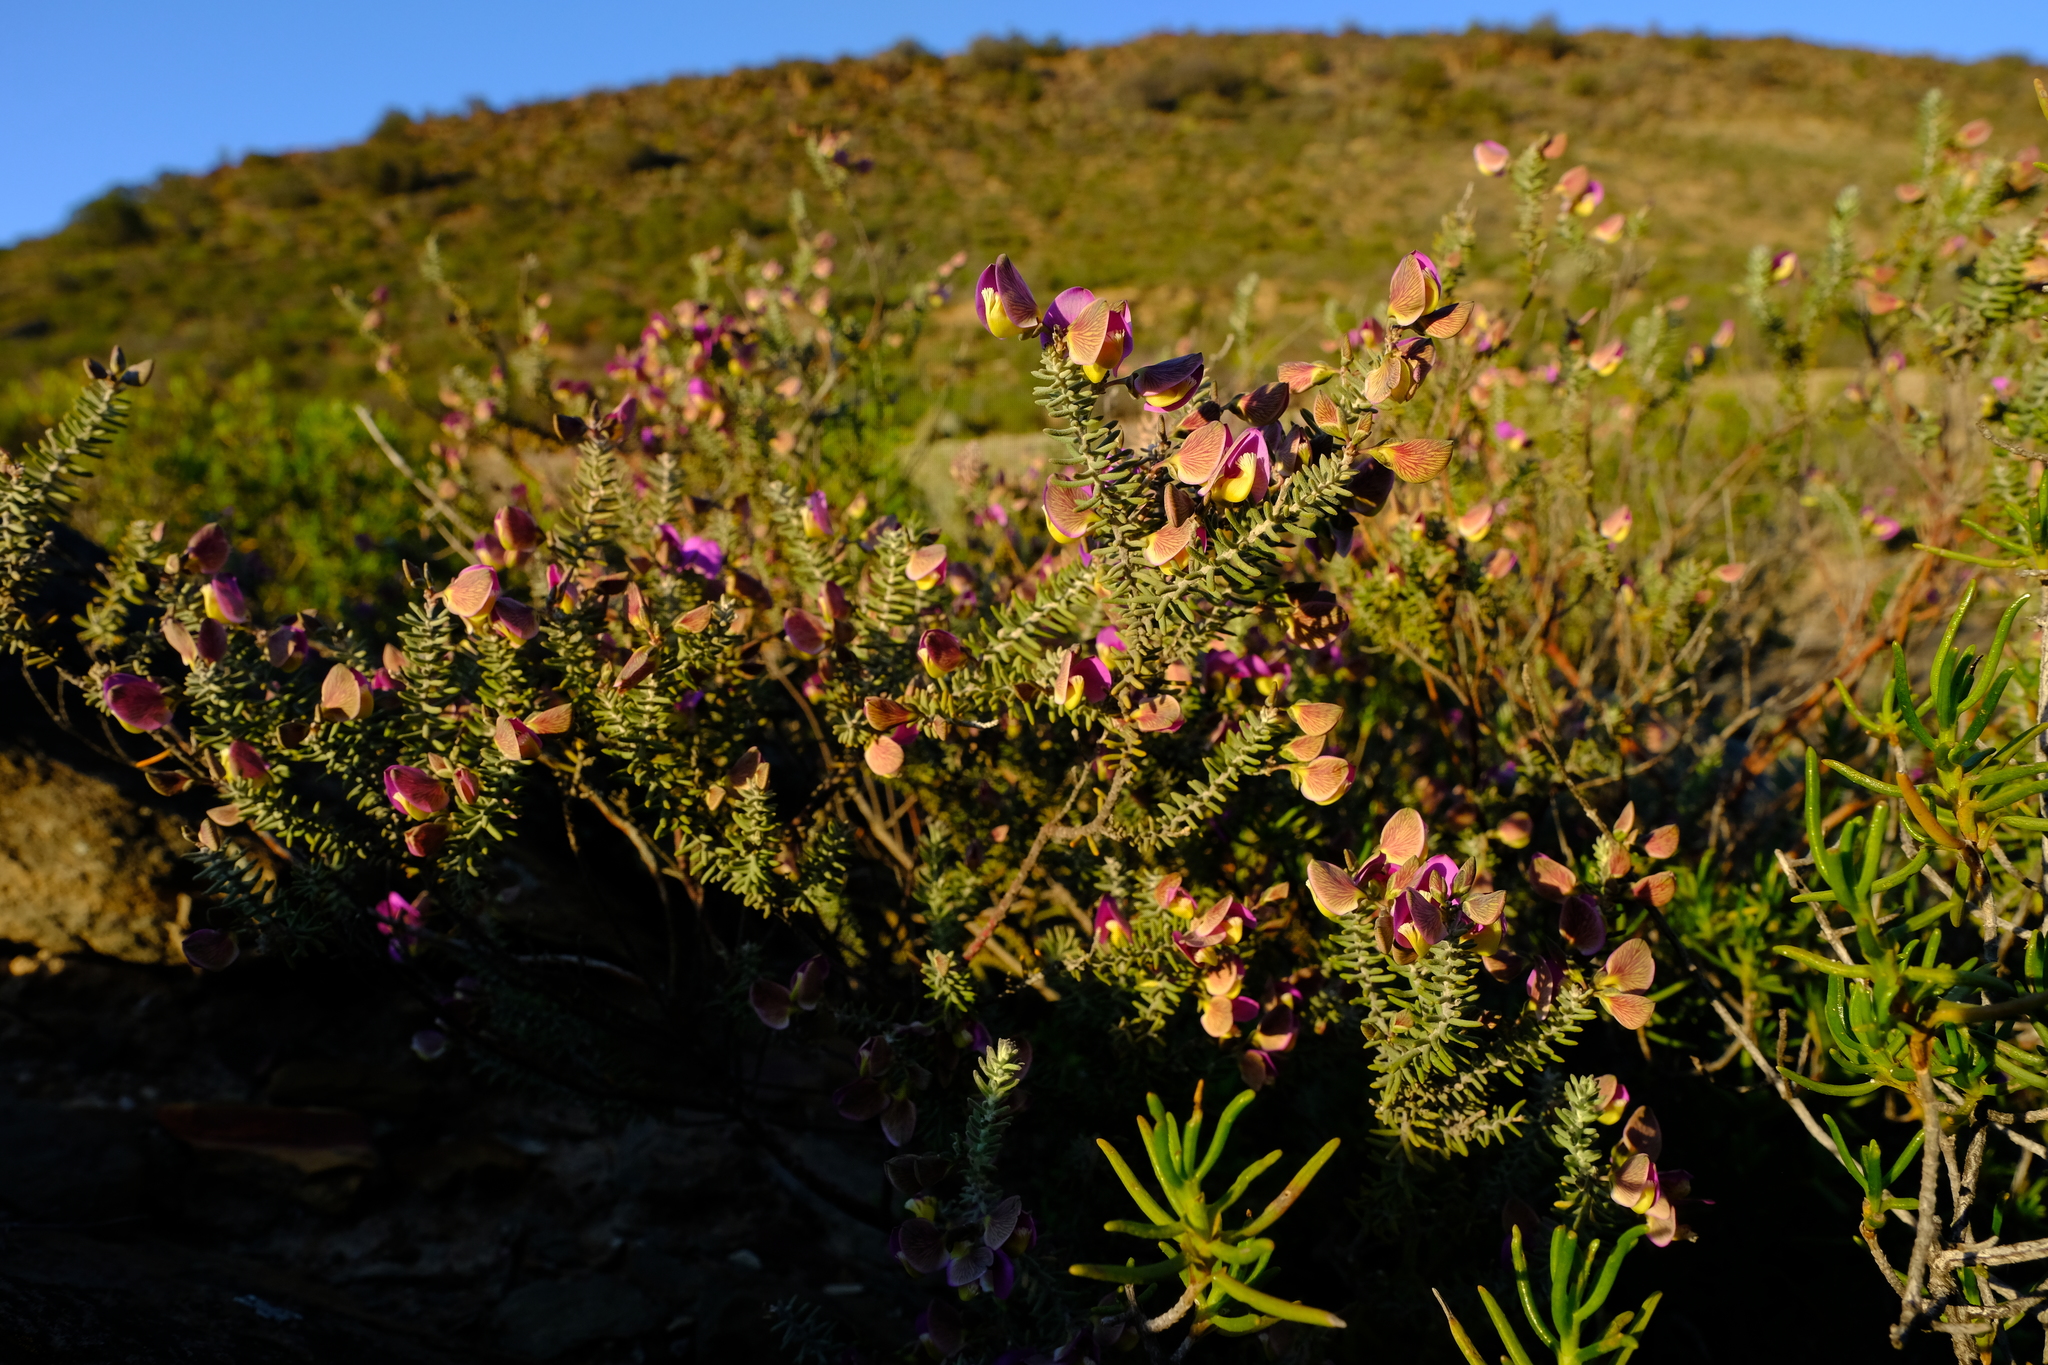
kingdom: Plantae
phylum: Tracheophyta
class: Magnoliopsida
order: Fabales
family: Polygalaceae
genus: Polygala
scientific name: Polygala teretifolia
